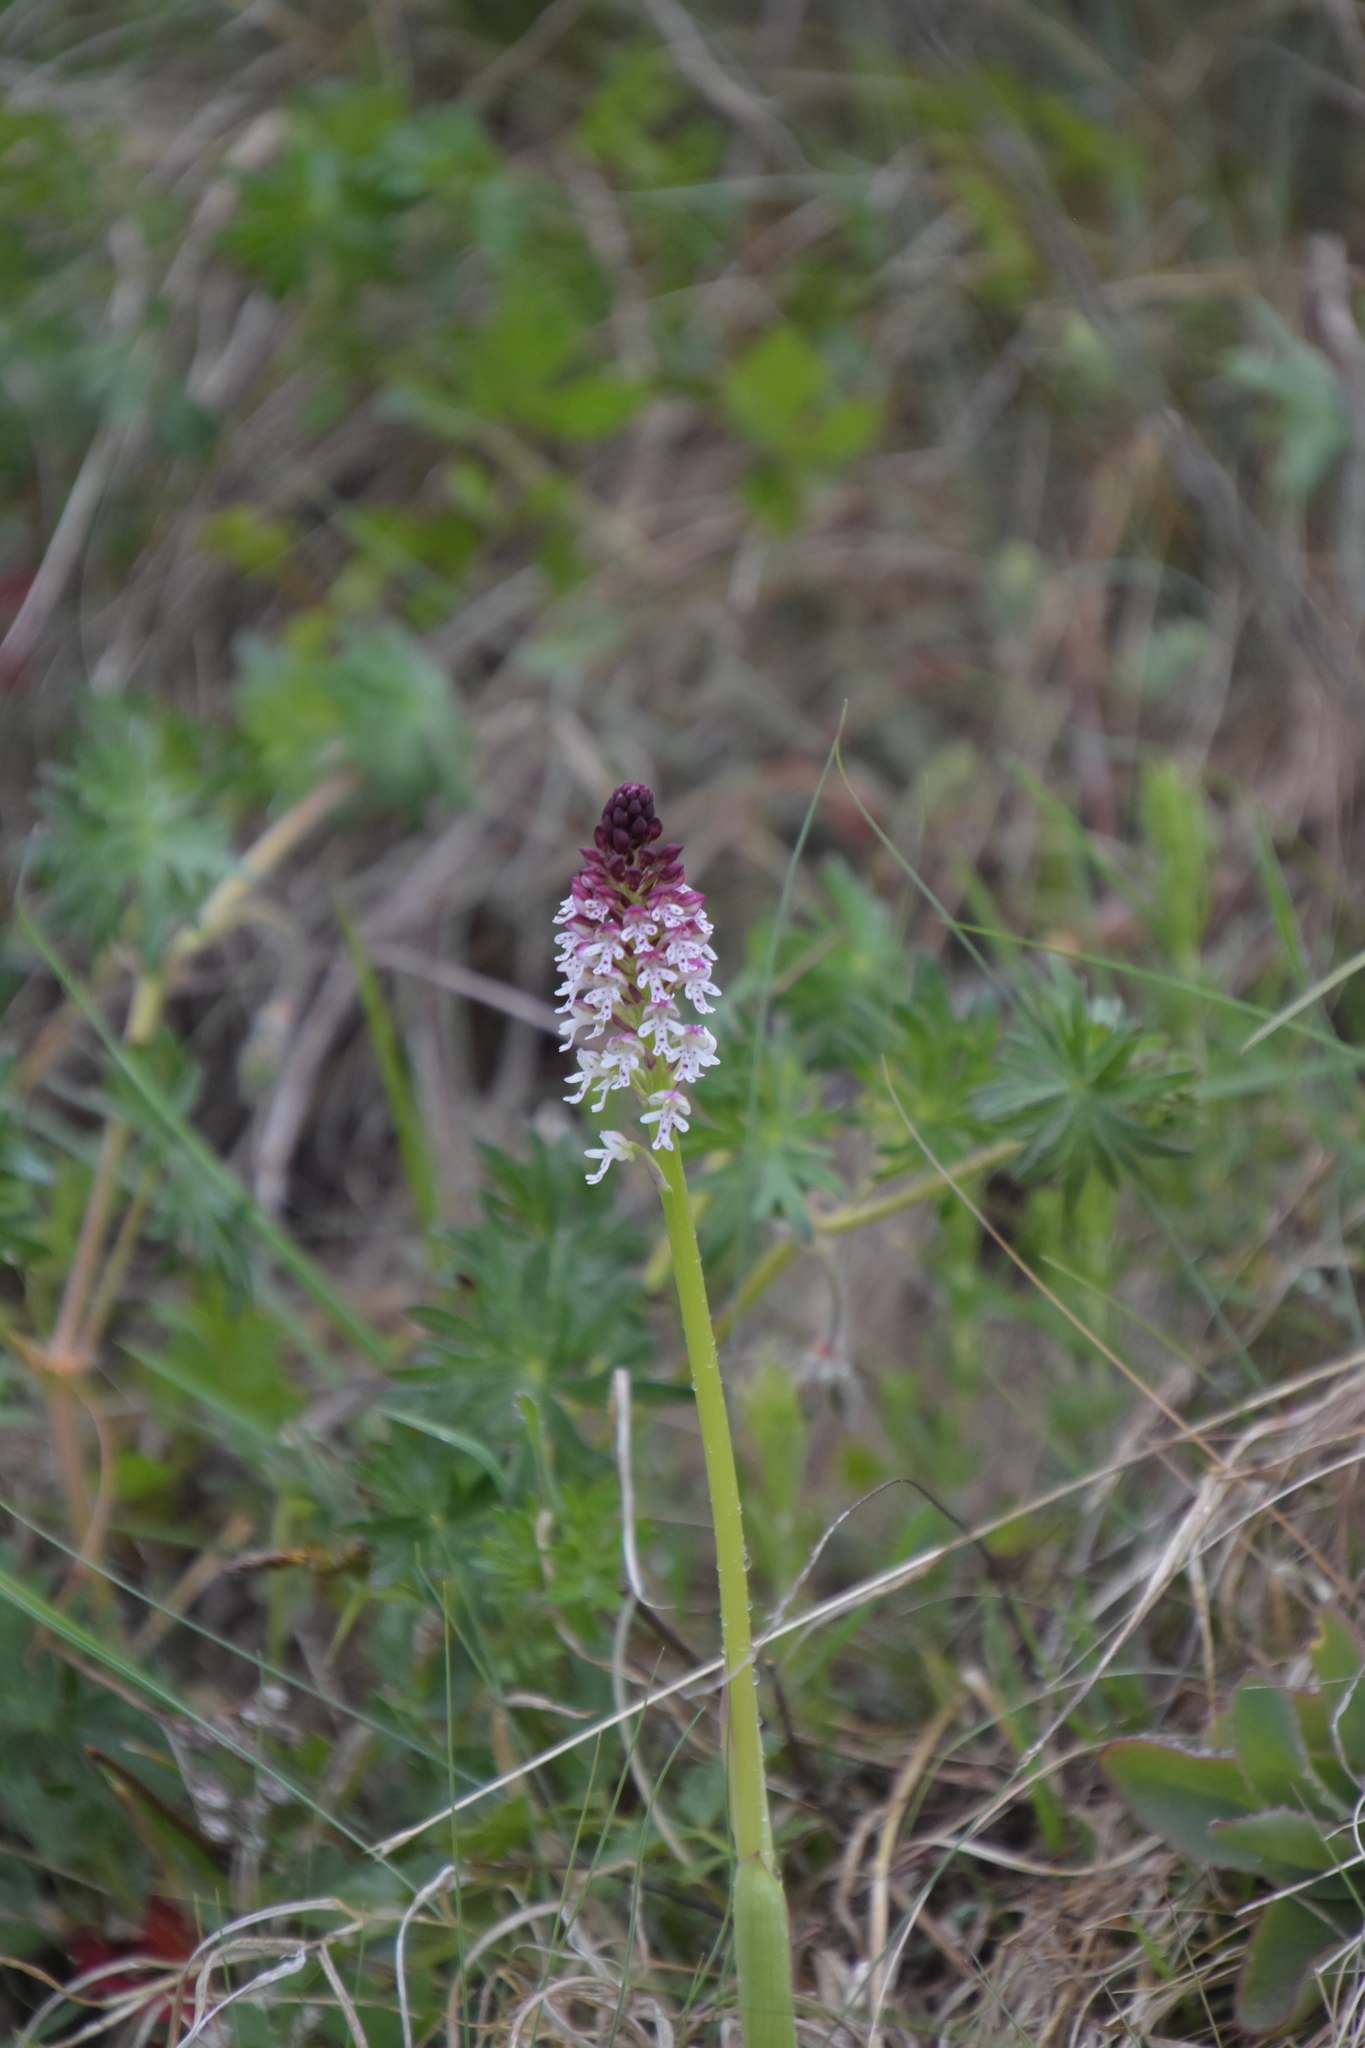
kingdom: Plantae
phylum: Tracheophyta
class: Liliopsida
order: Asparagales
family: Orchidaceae
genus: Neotinea
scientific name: Neotinea ustulata
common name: Burnt orchid
